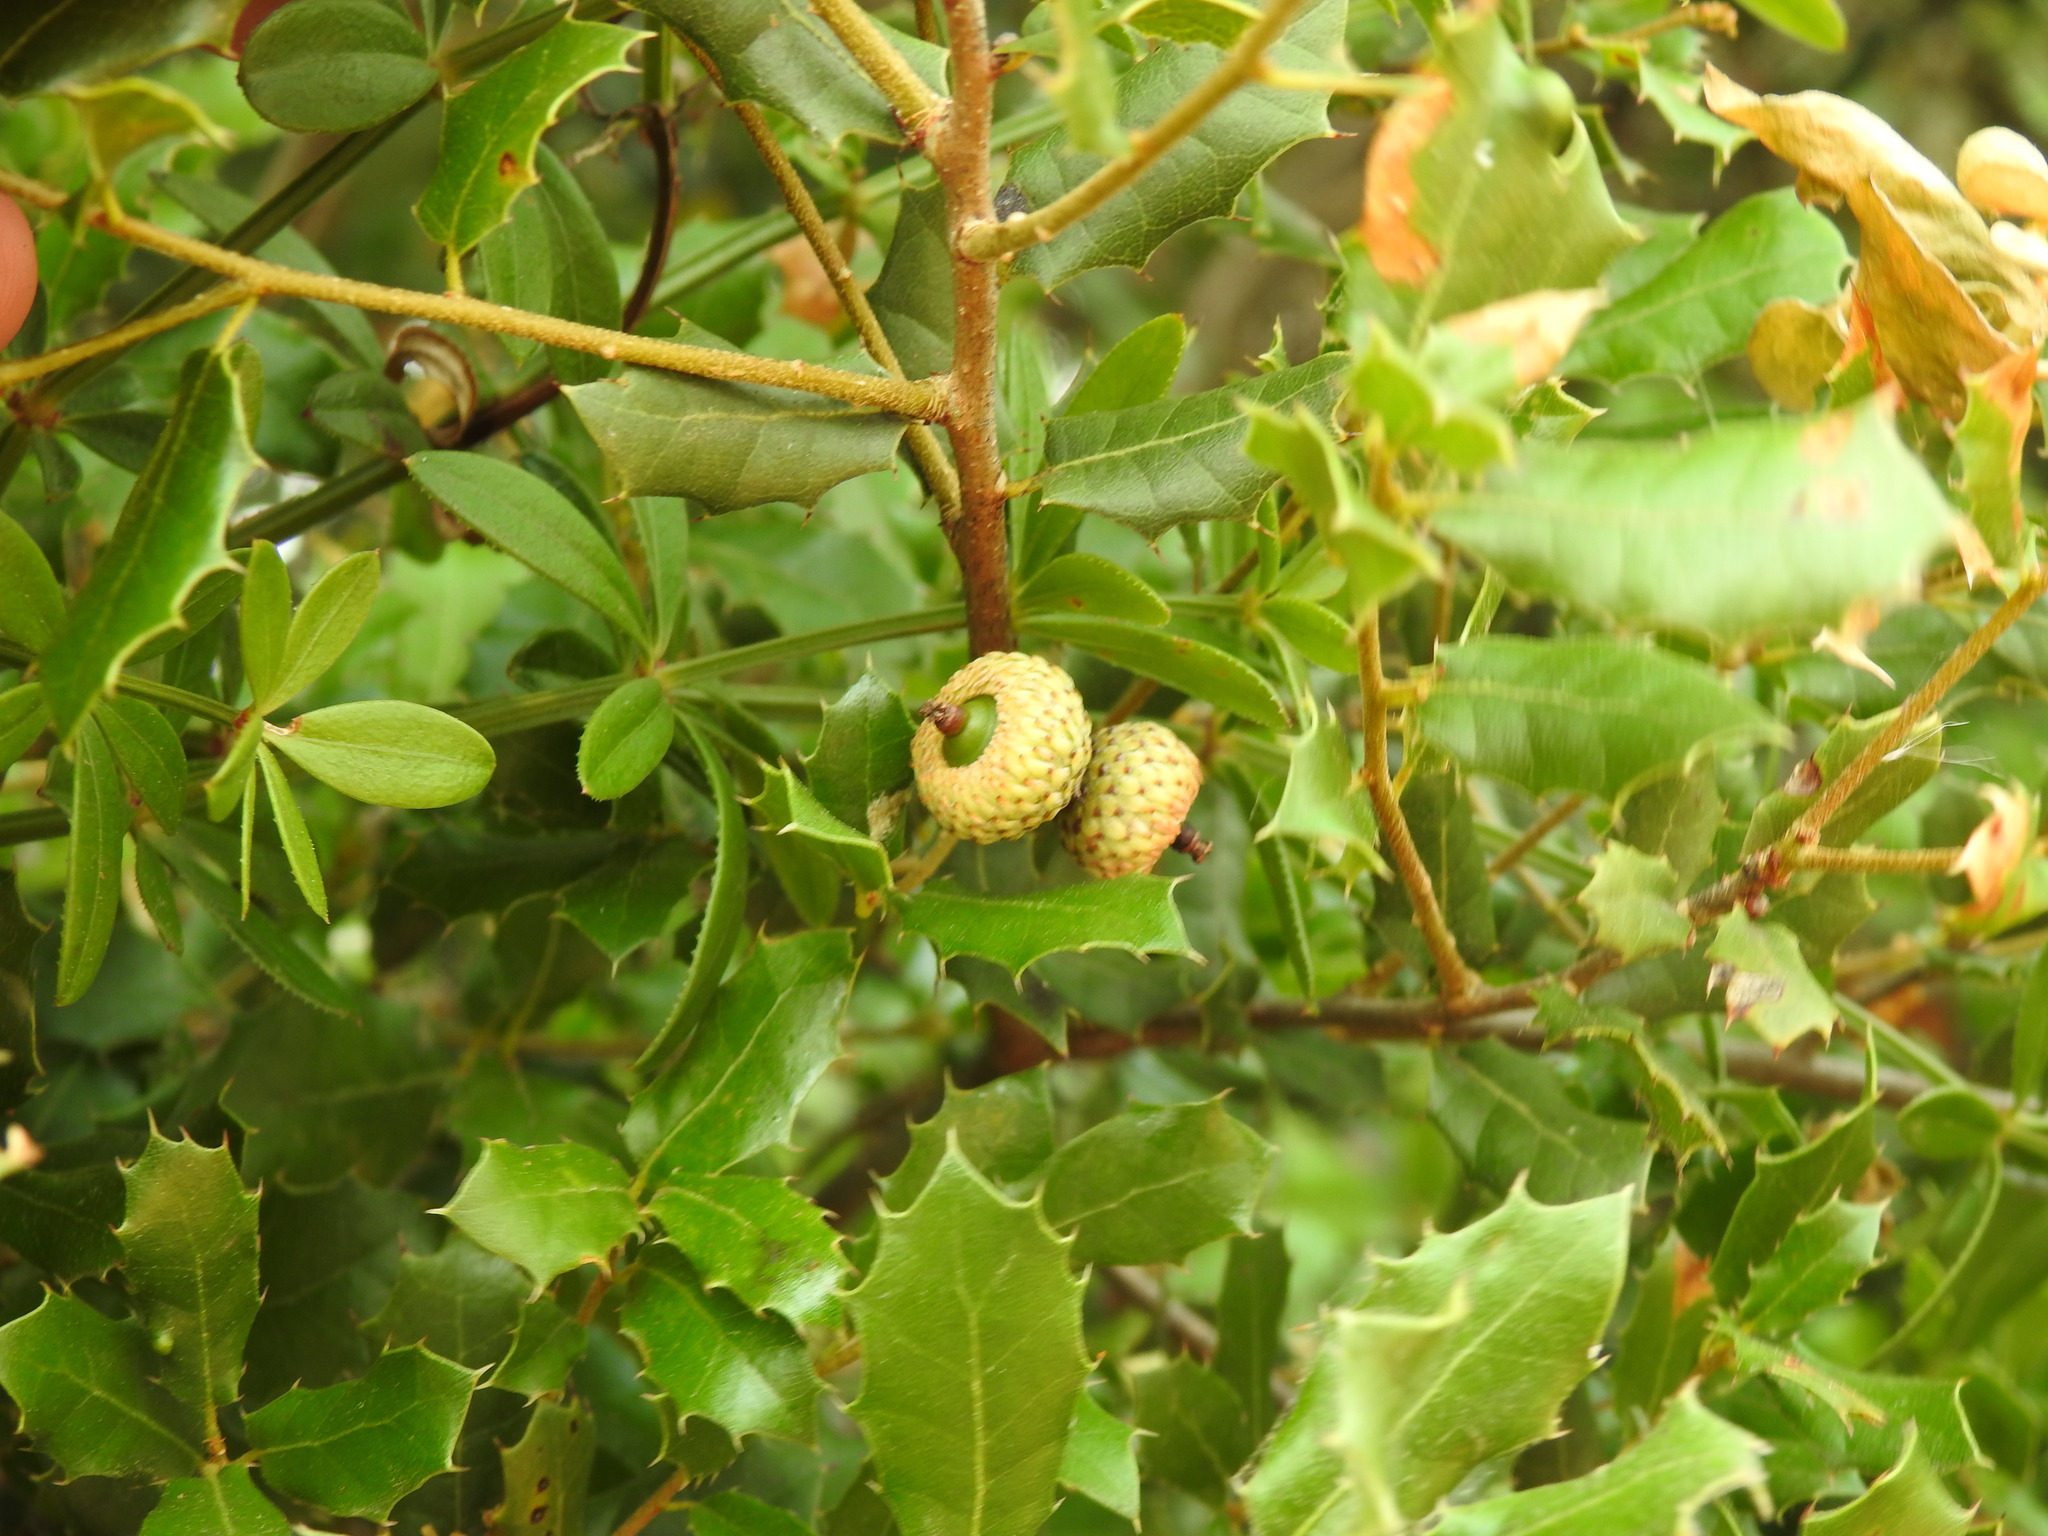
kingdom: Plantae
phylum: Tracheophyta
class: Magnoliopsida
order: Fagales
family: Fagaceae
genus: Quercus
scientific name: Quercus coccifera
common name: Kermes oak
